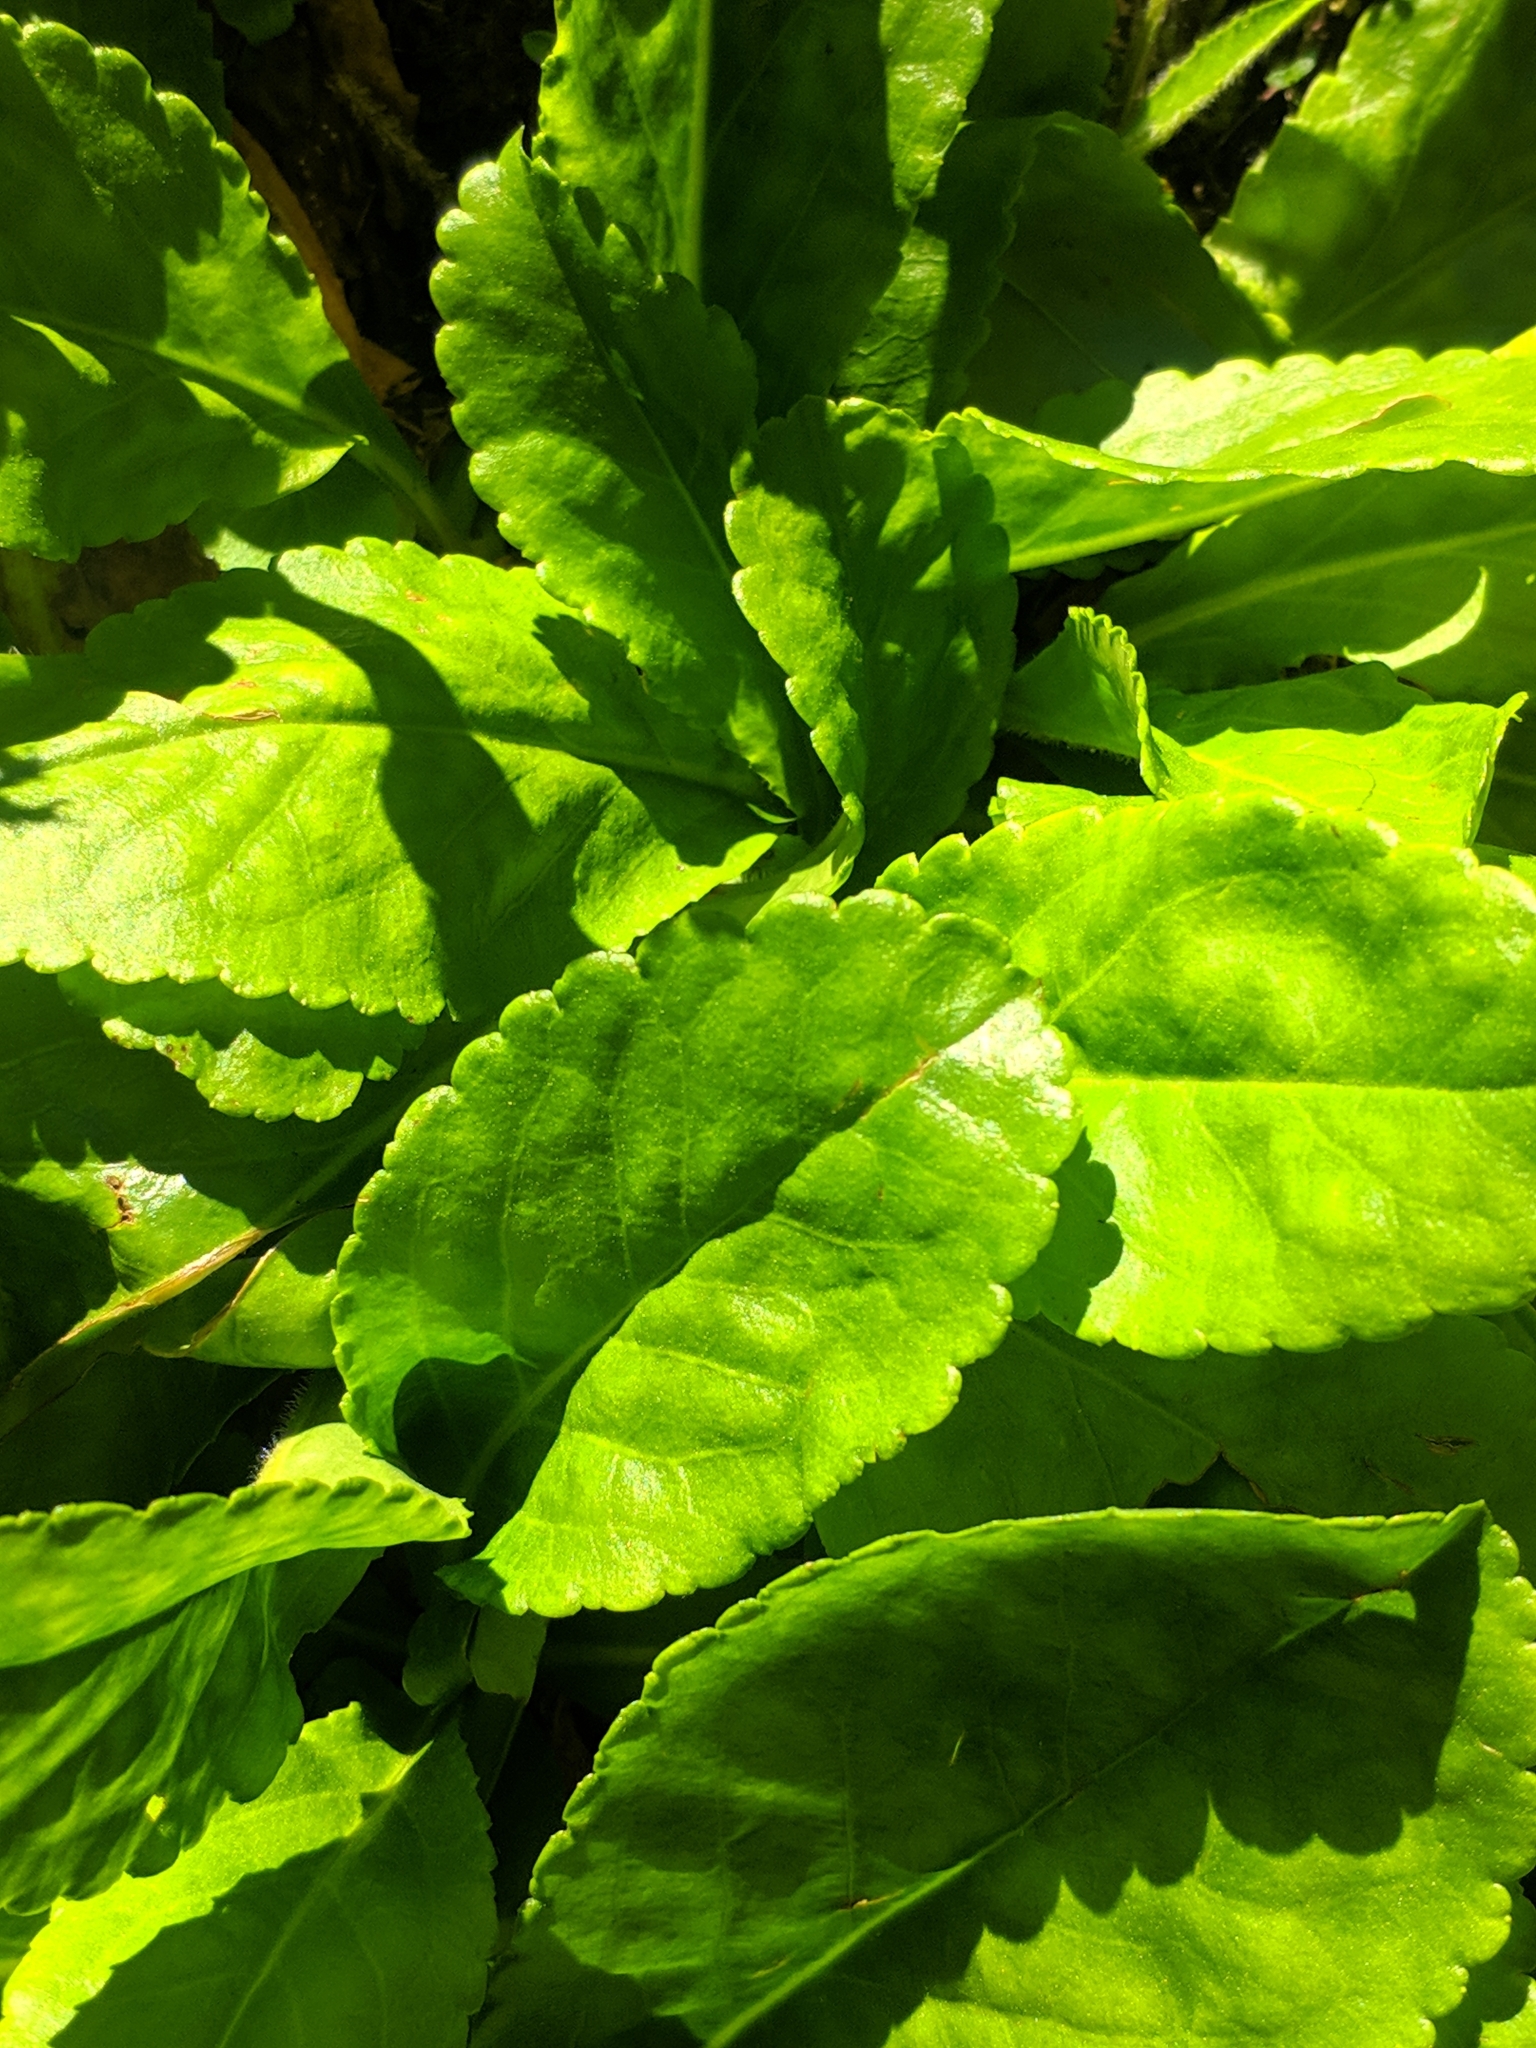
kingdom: Plantae
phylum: Tracheophyta
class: Magnoliopsida
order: Lamiales
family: Plantaginaceae
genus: Wulfenia
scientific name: Wulfenia carinthiaca
